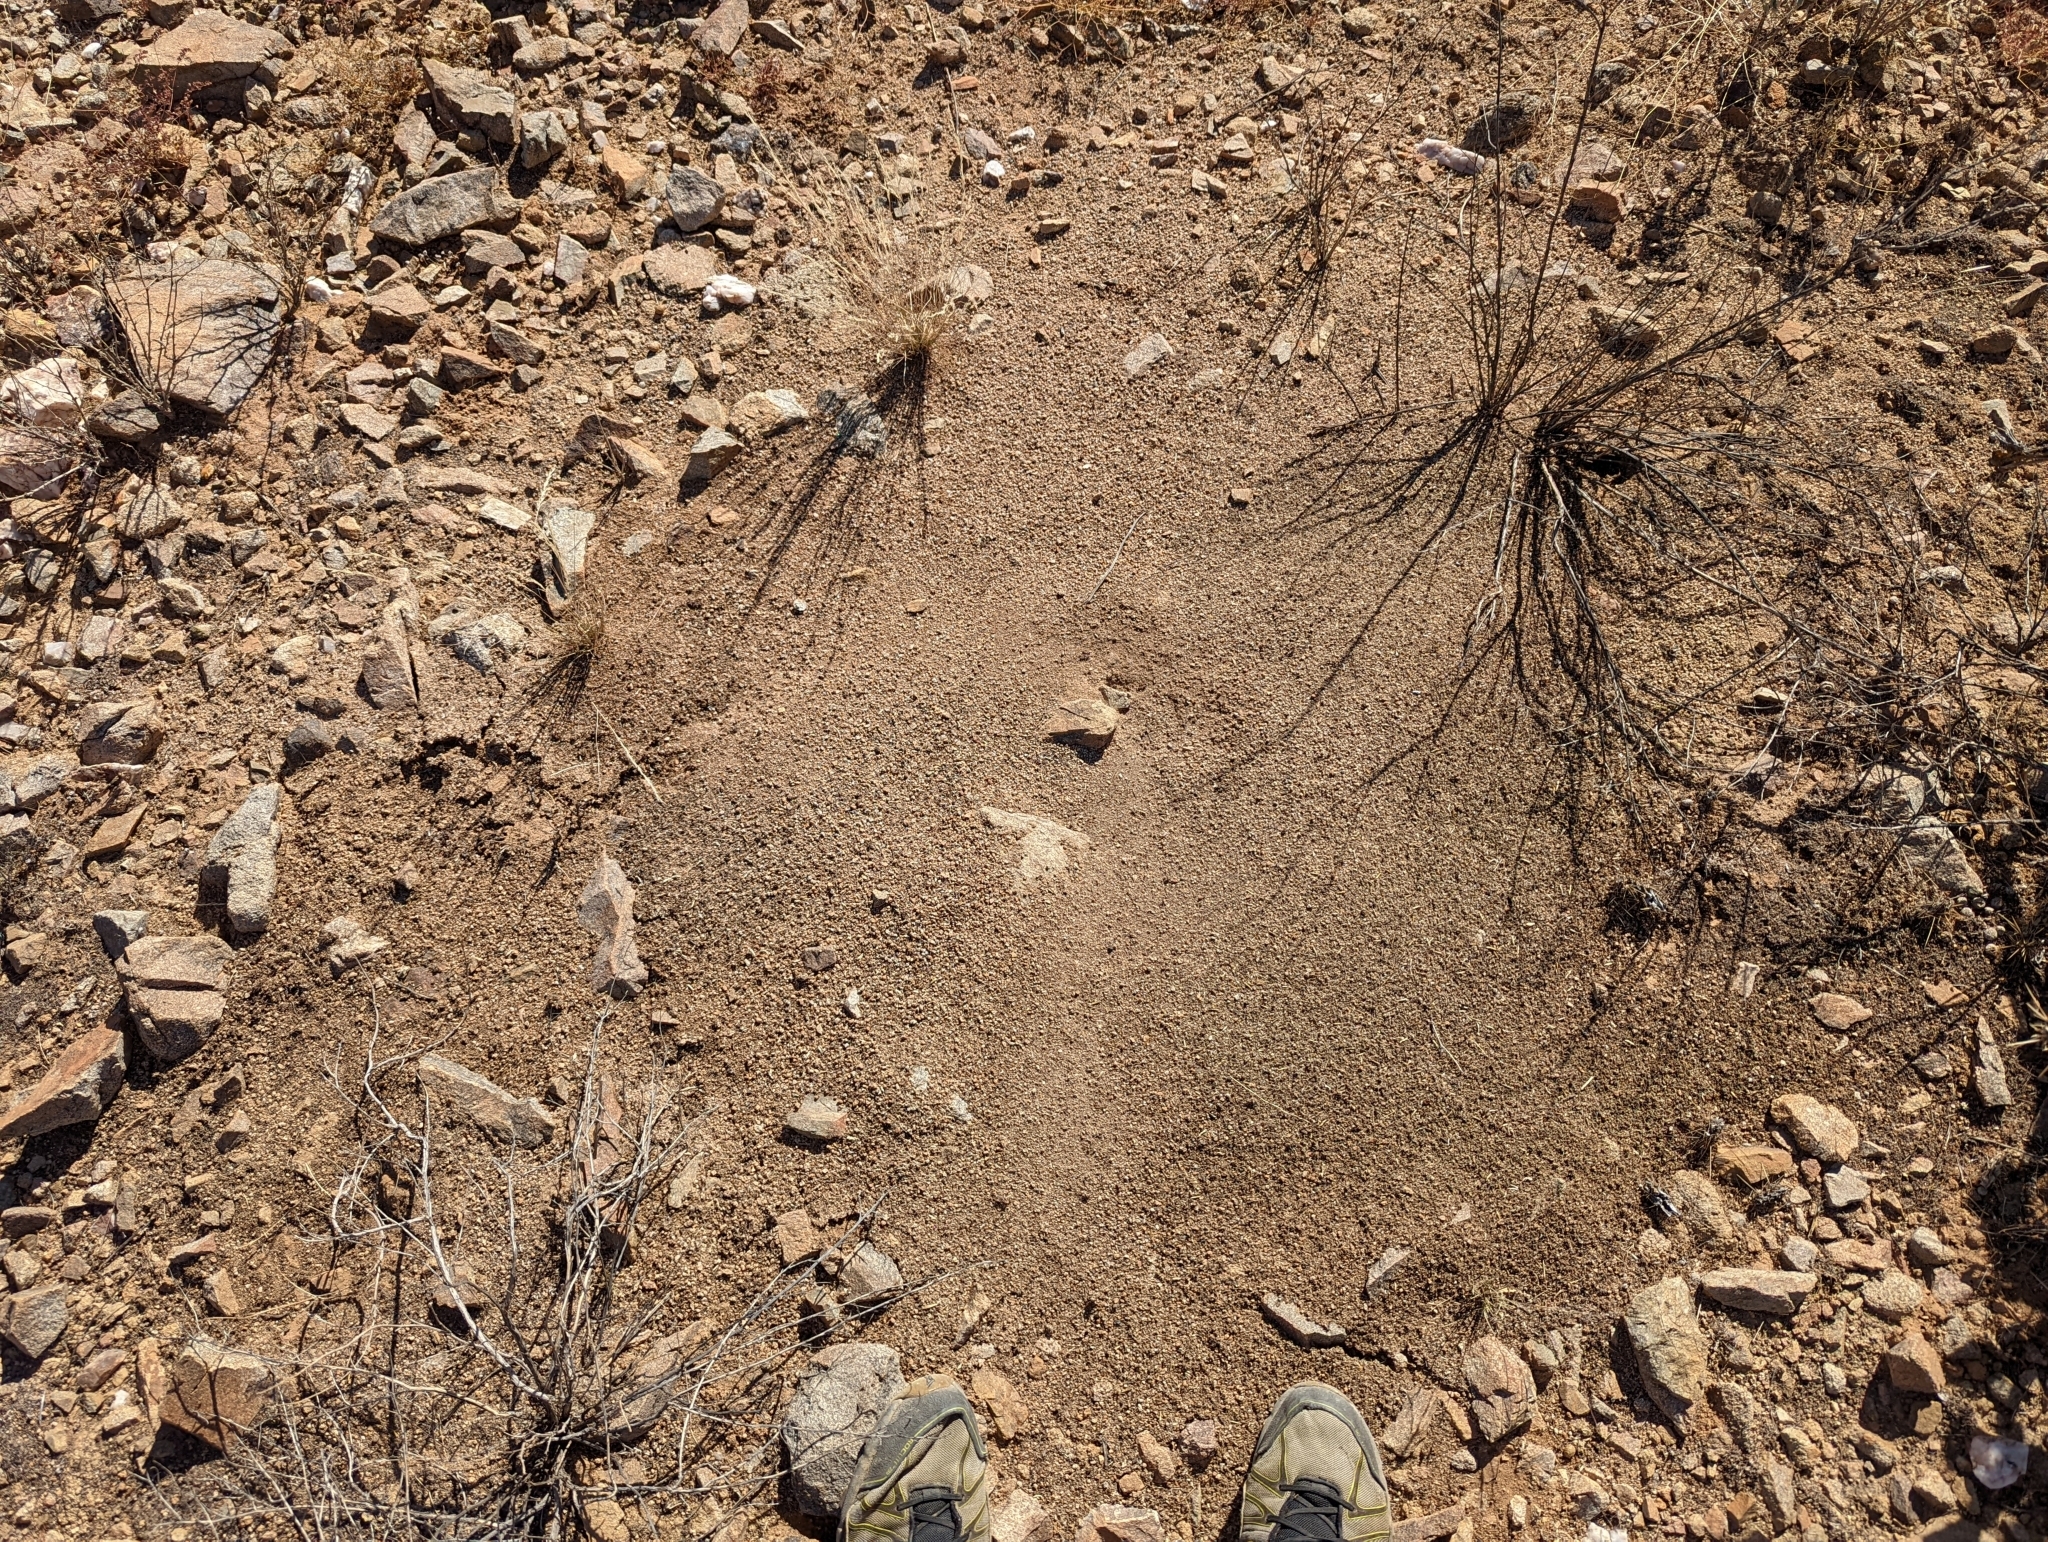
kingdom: Animalia
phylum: Arthropoda
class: Insecta
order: Hymenoptera
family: Formicidae
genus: Pogonomyrmex
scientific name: Pogonomyrmex rugosus
